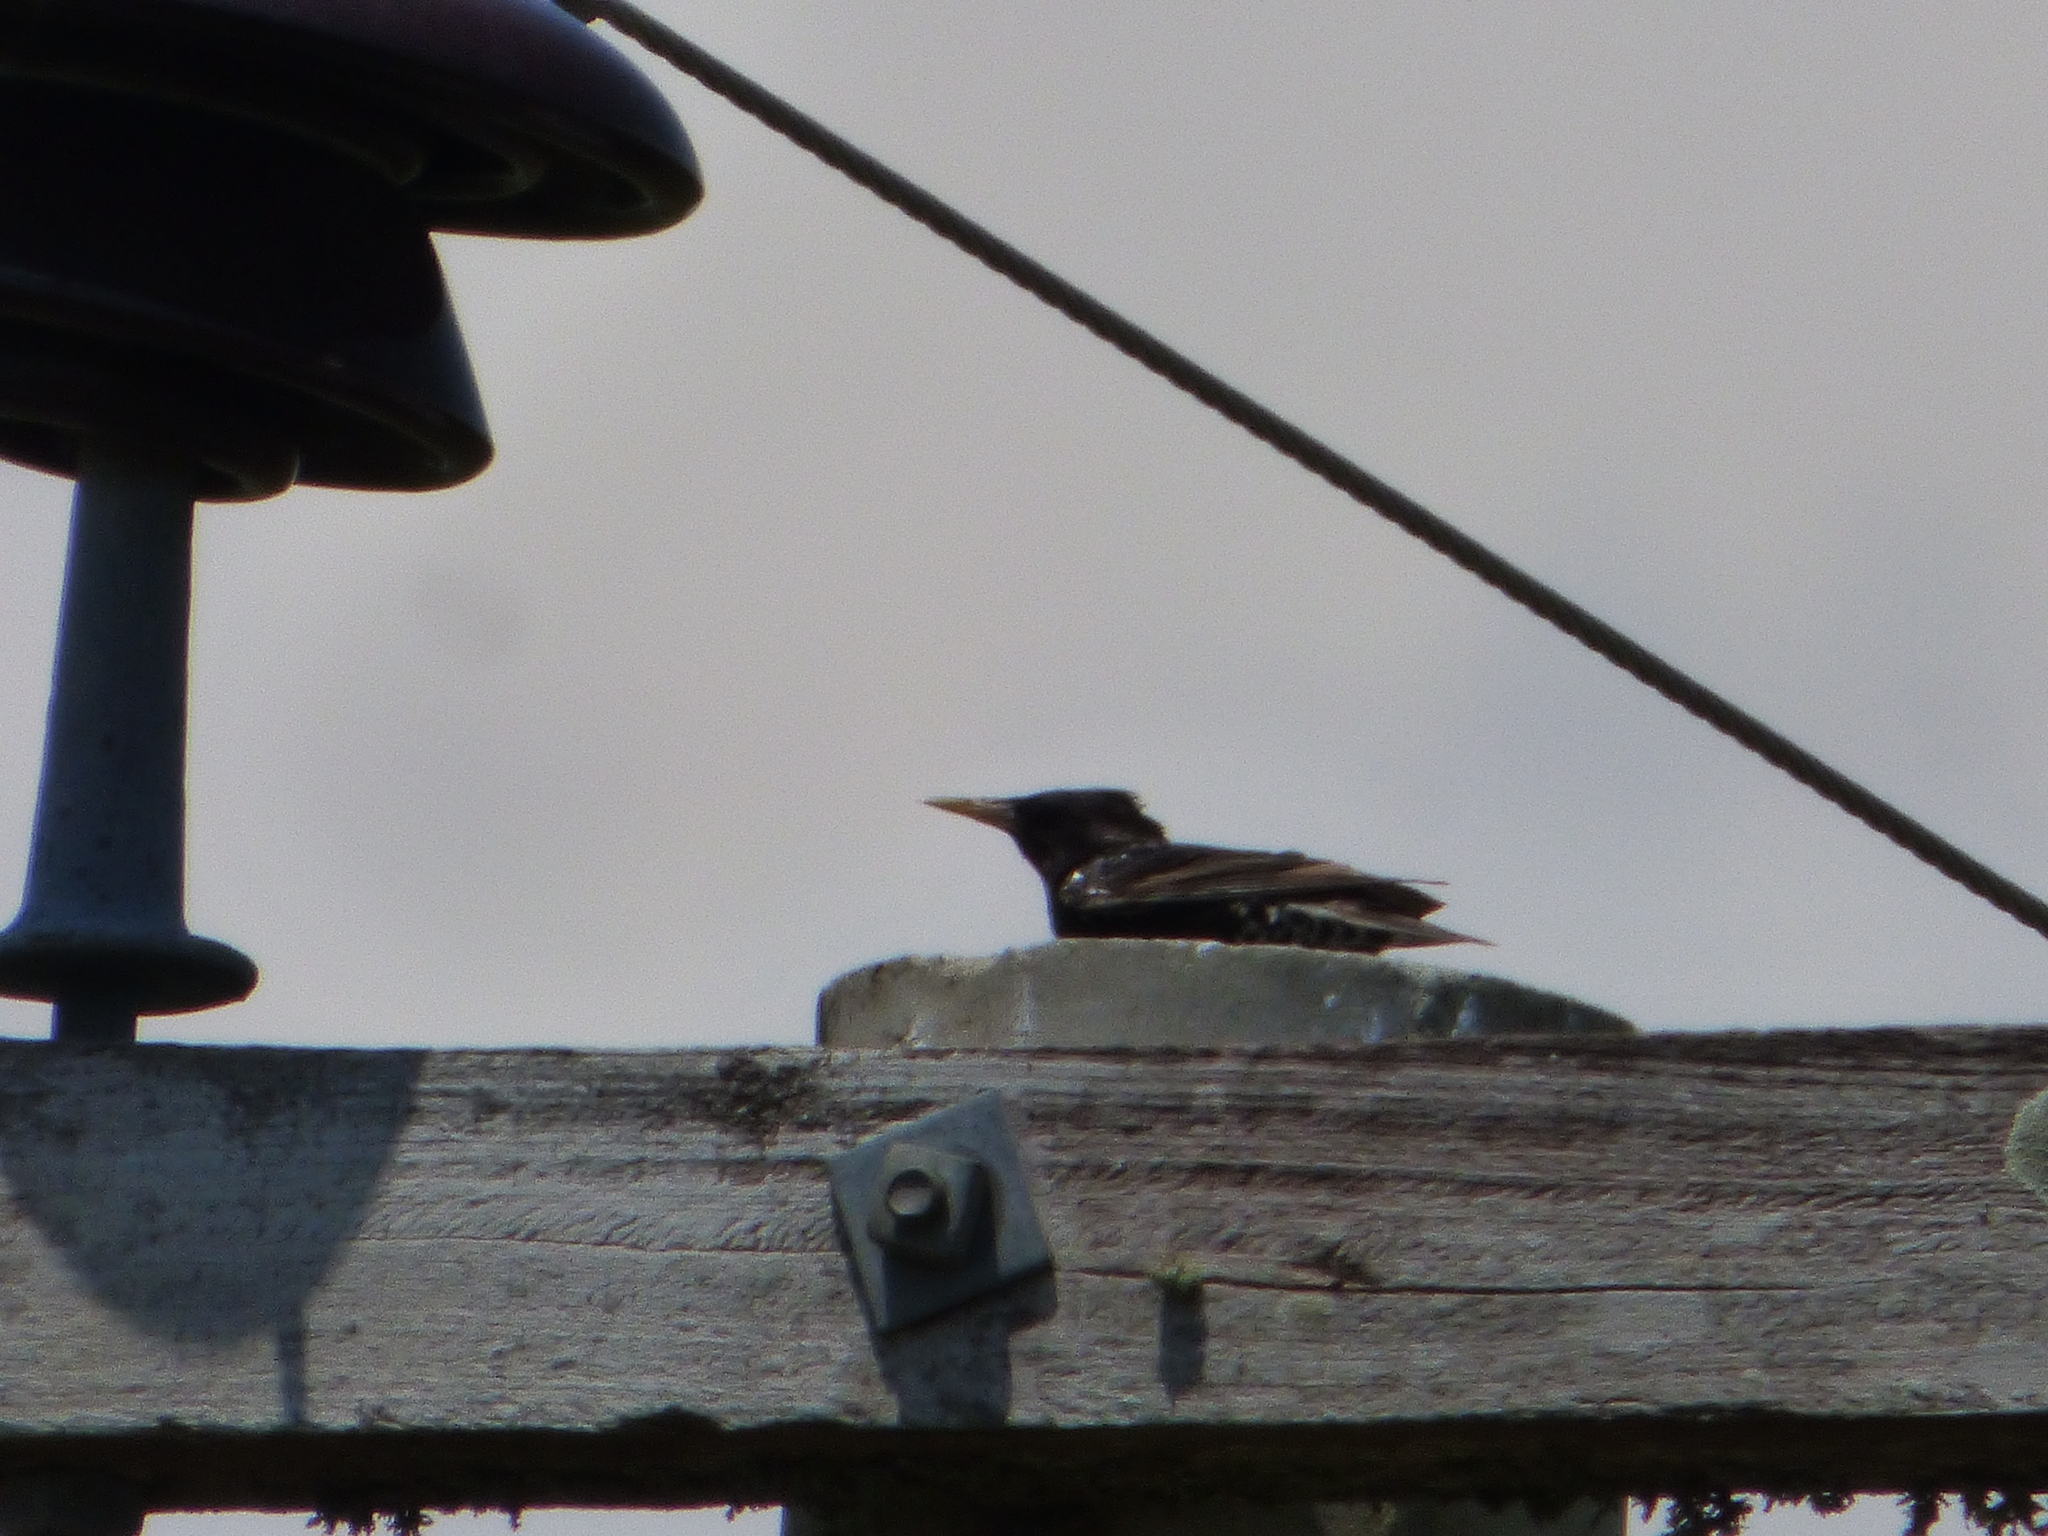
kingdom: Animalia
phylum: Chordata
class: Aves
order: Passeriformes
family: Sturnidae
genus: Sturnus
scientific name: Sturnus vulgaris
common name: Common starling
